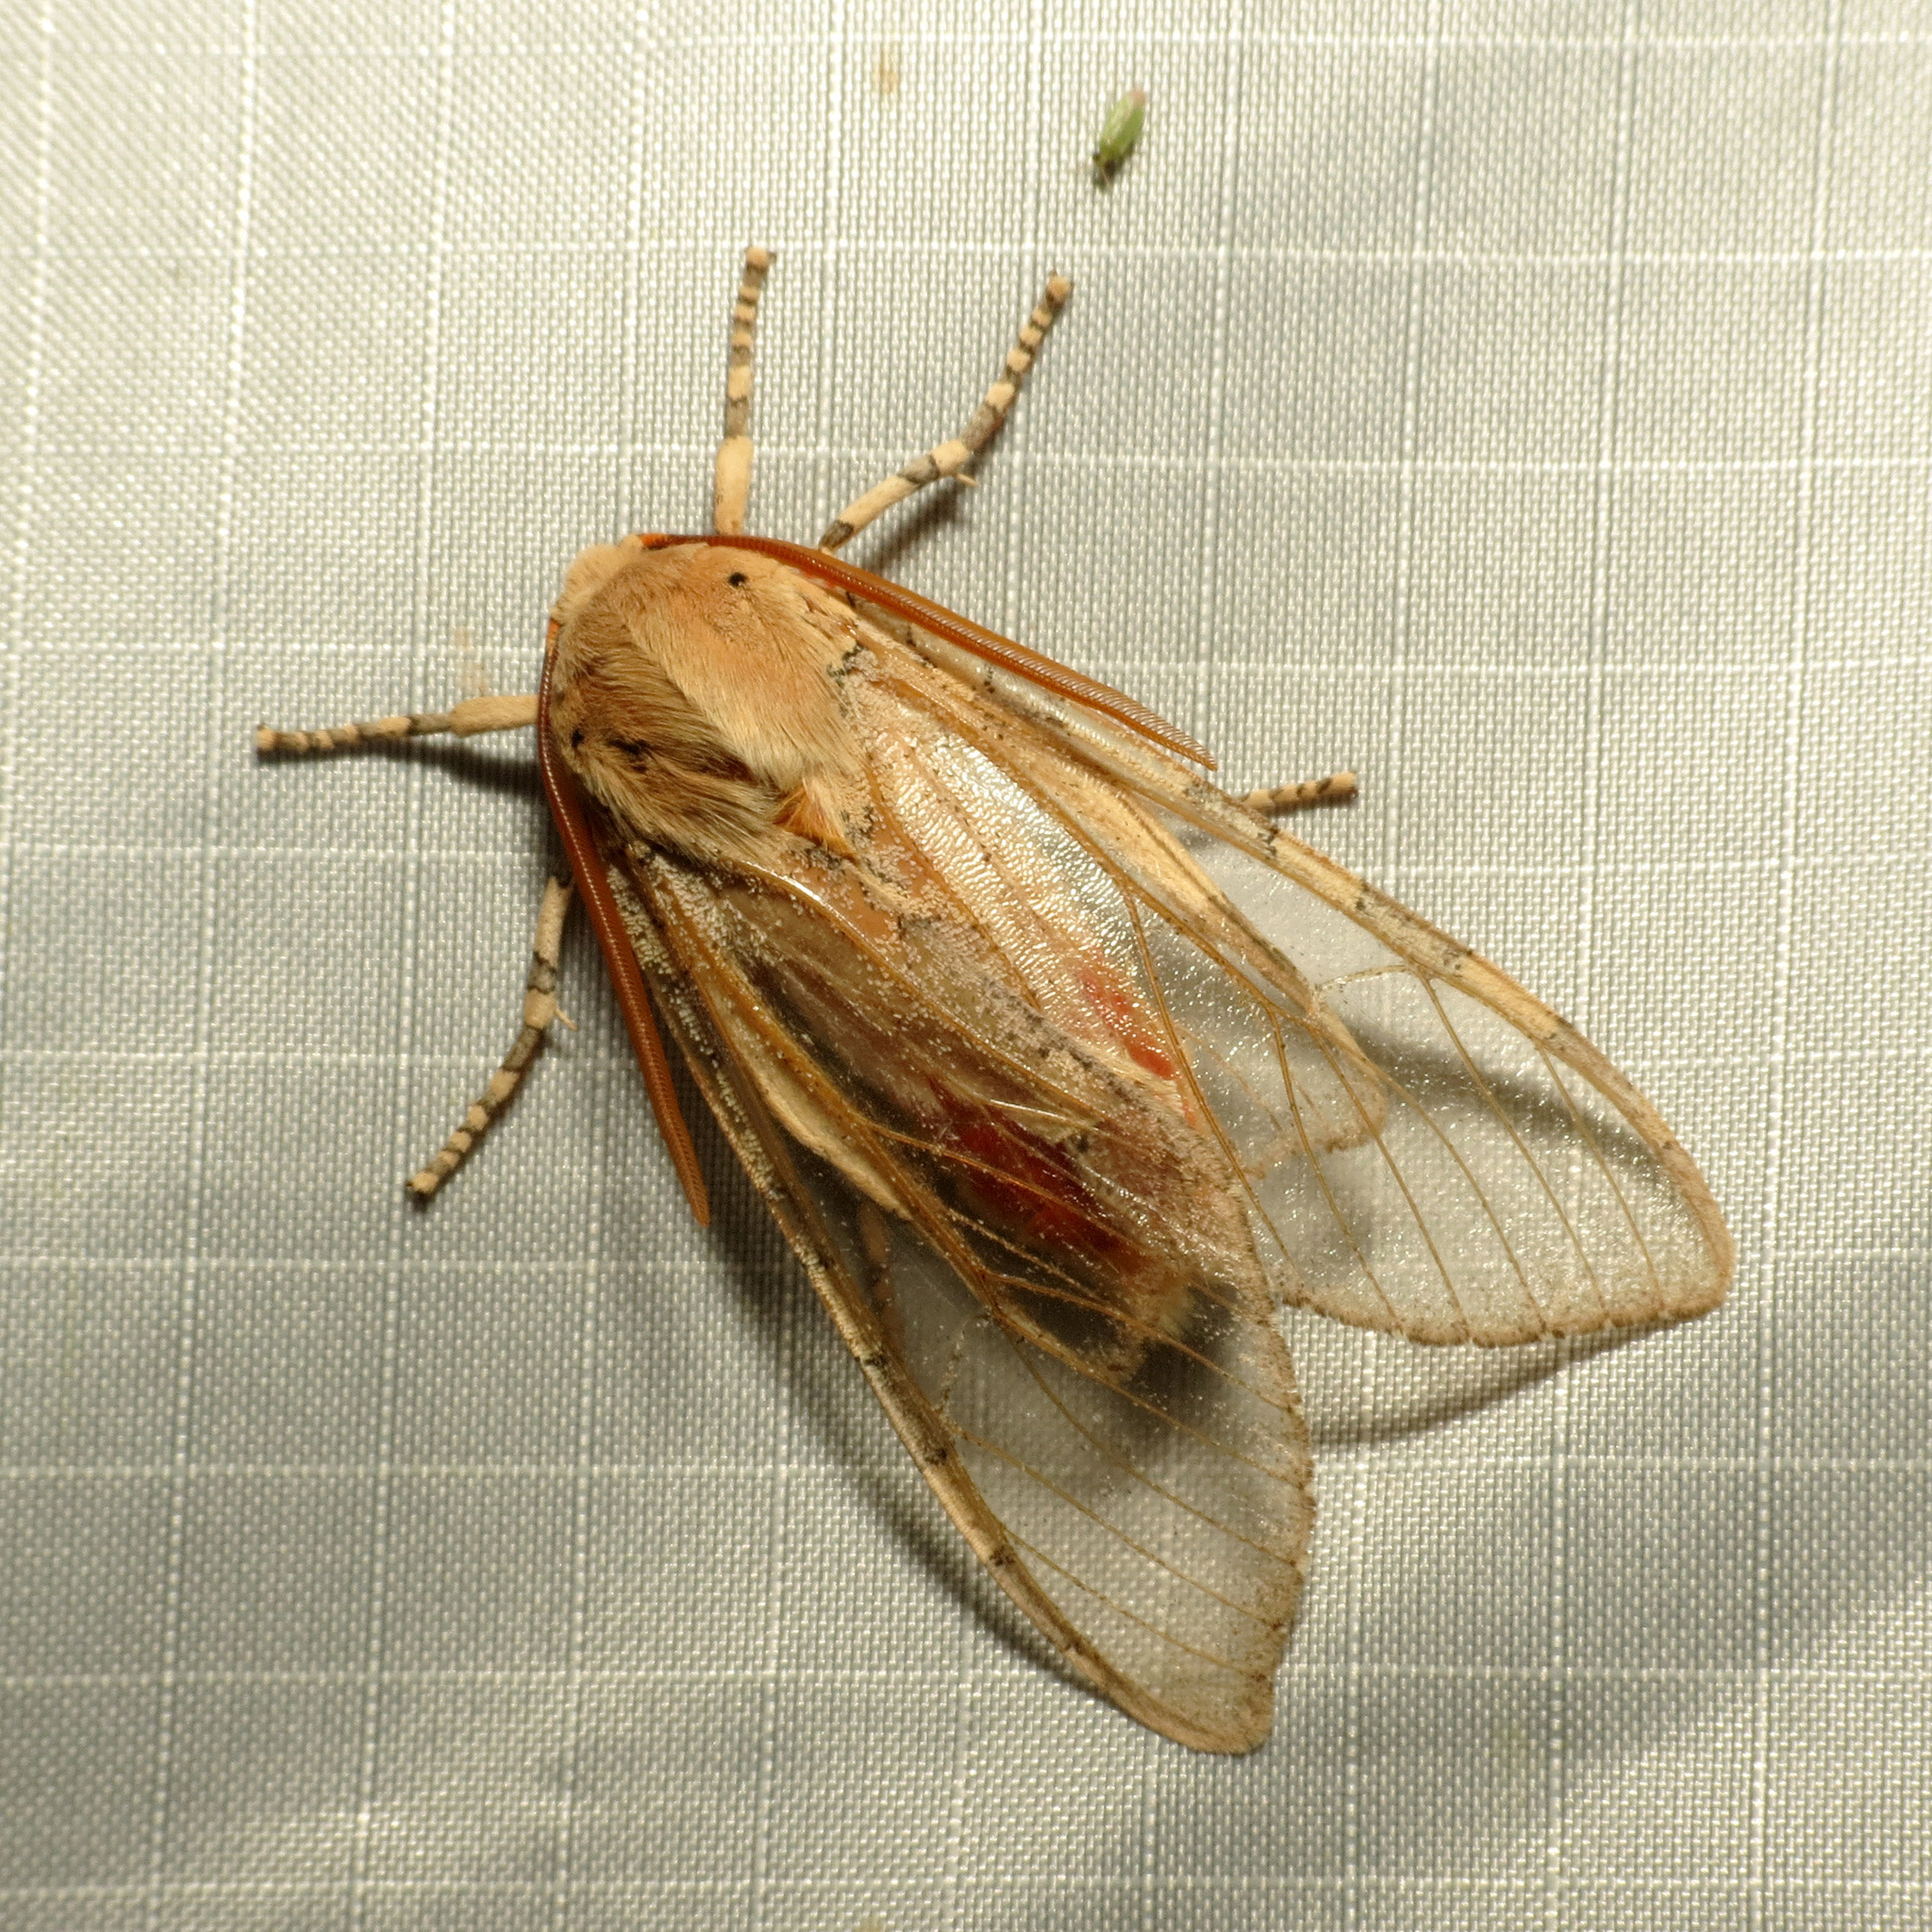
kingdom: Animalia
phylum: Arthropoda
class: Insecta
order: Lepidoptera
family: Erebidae
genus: Hemihyalea
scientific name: Hemihyalea edwardsii
